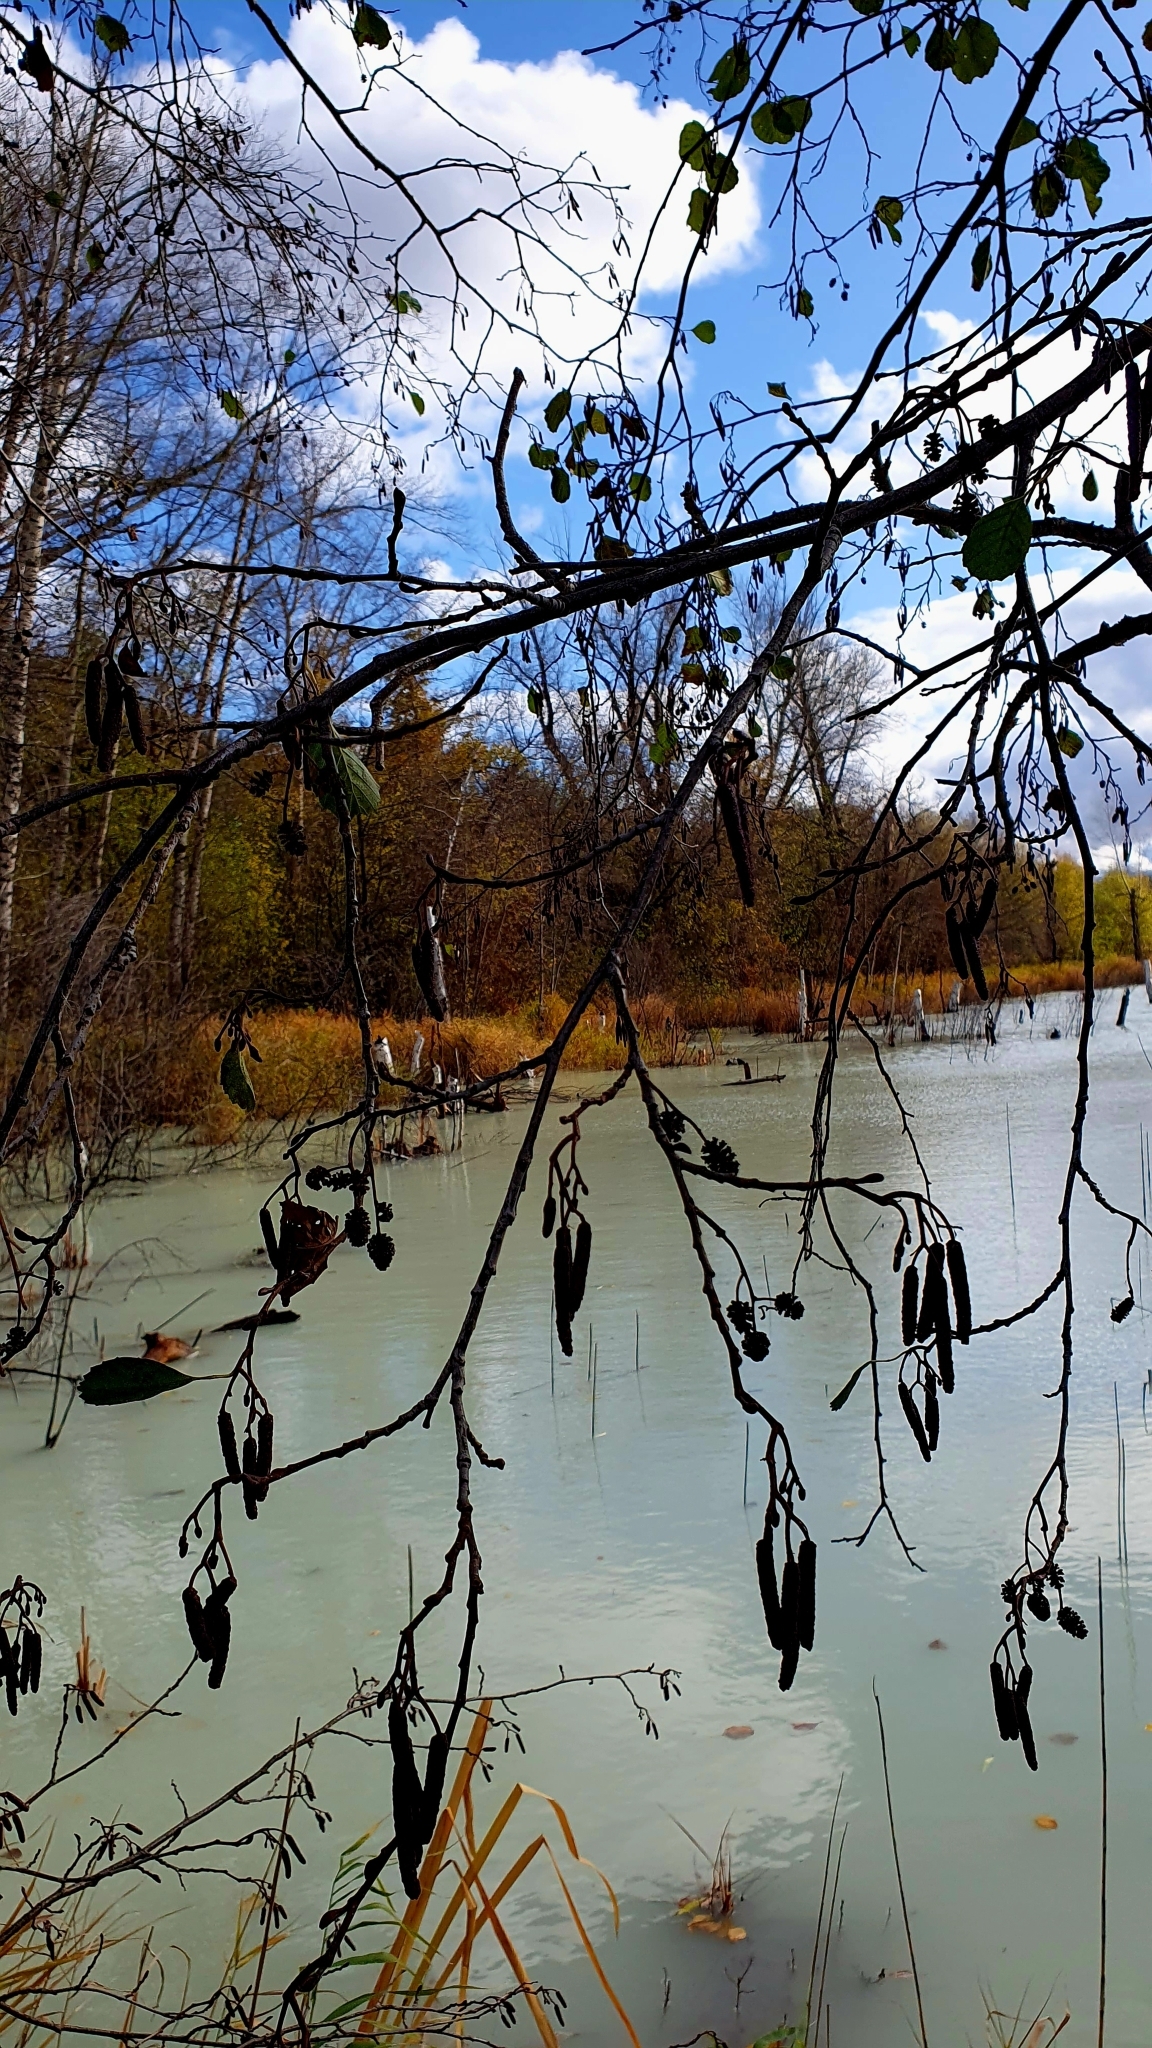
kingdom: Plantae
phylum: Tracheophyta
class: Magnoliopsida
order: Fagales
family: Betulaceae
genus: Alnus
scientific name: Alnus glutinosa
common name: Black alder
